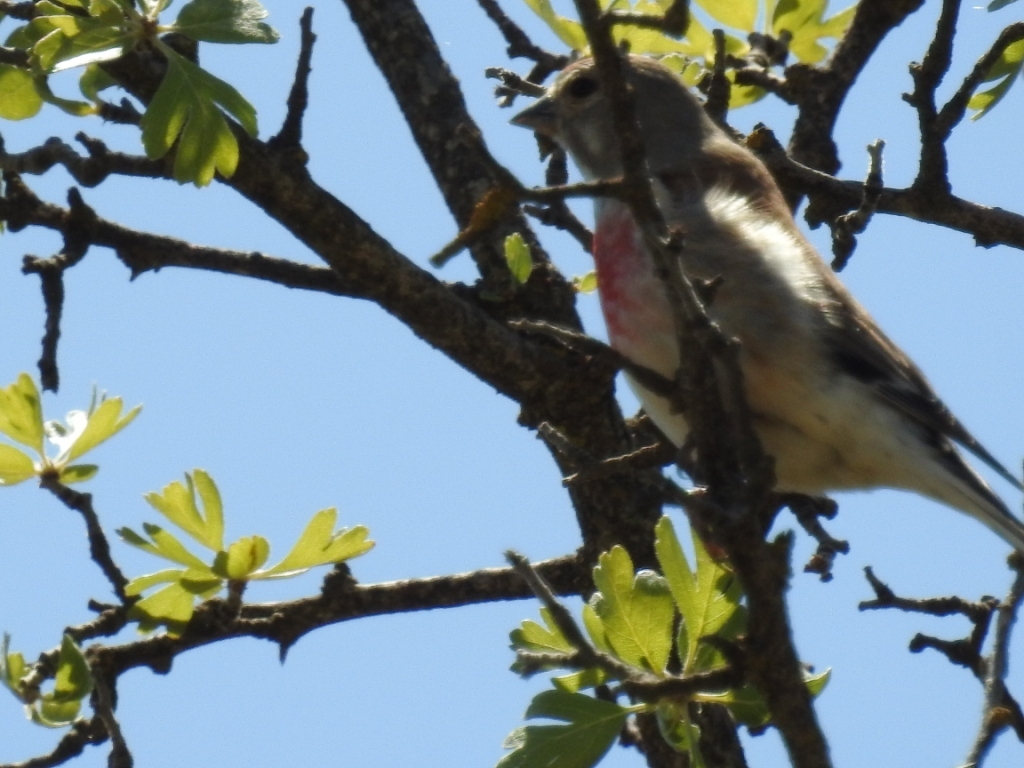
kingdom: Animalia
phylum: Chordata
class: Aves
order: Passeriformes
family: Fringillidae
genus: Linaria
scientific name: Linaria cannabina
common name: Common linnet
